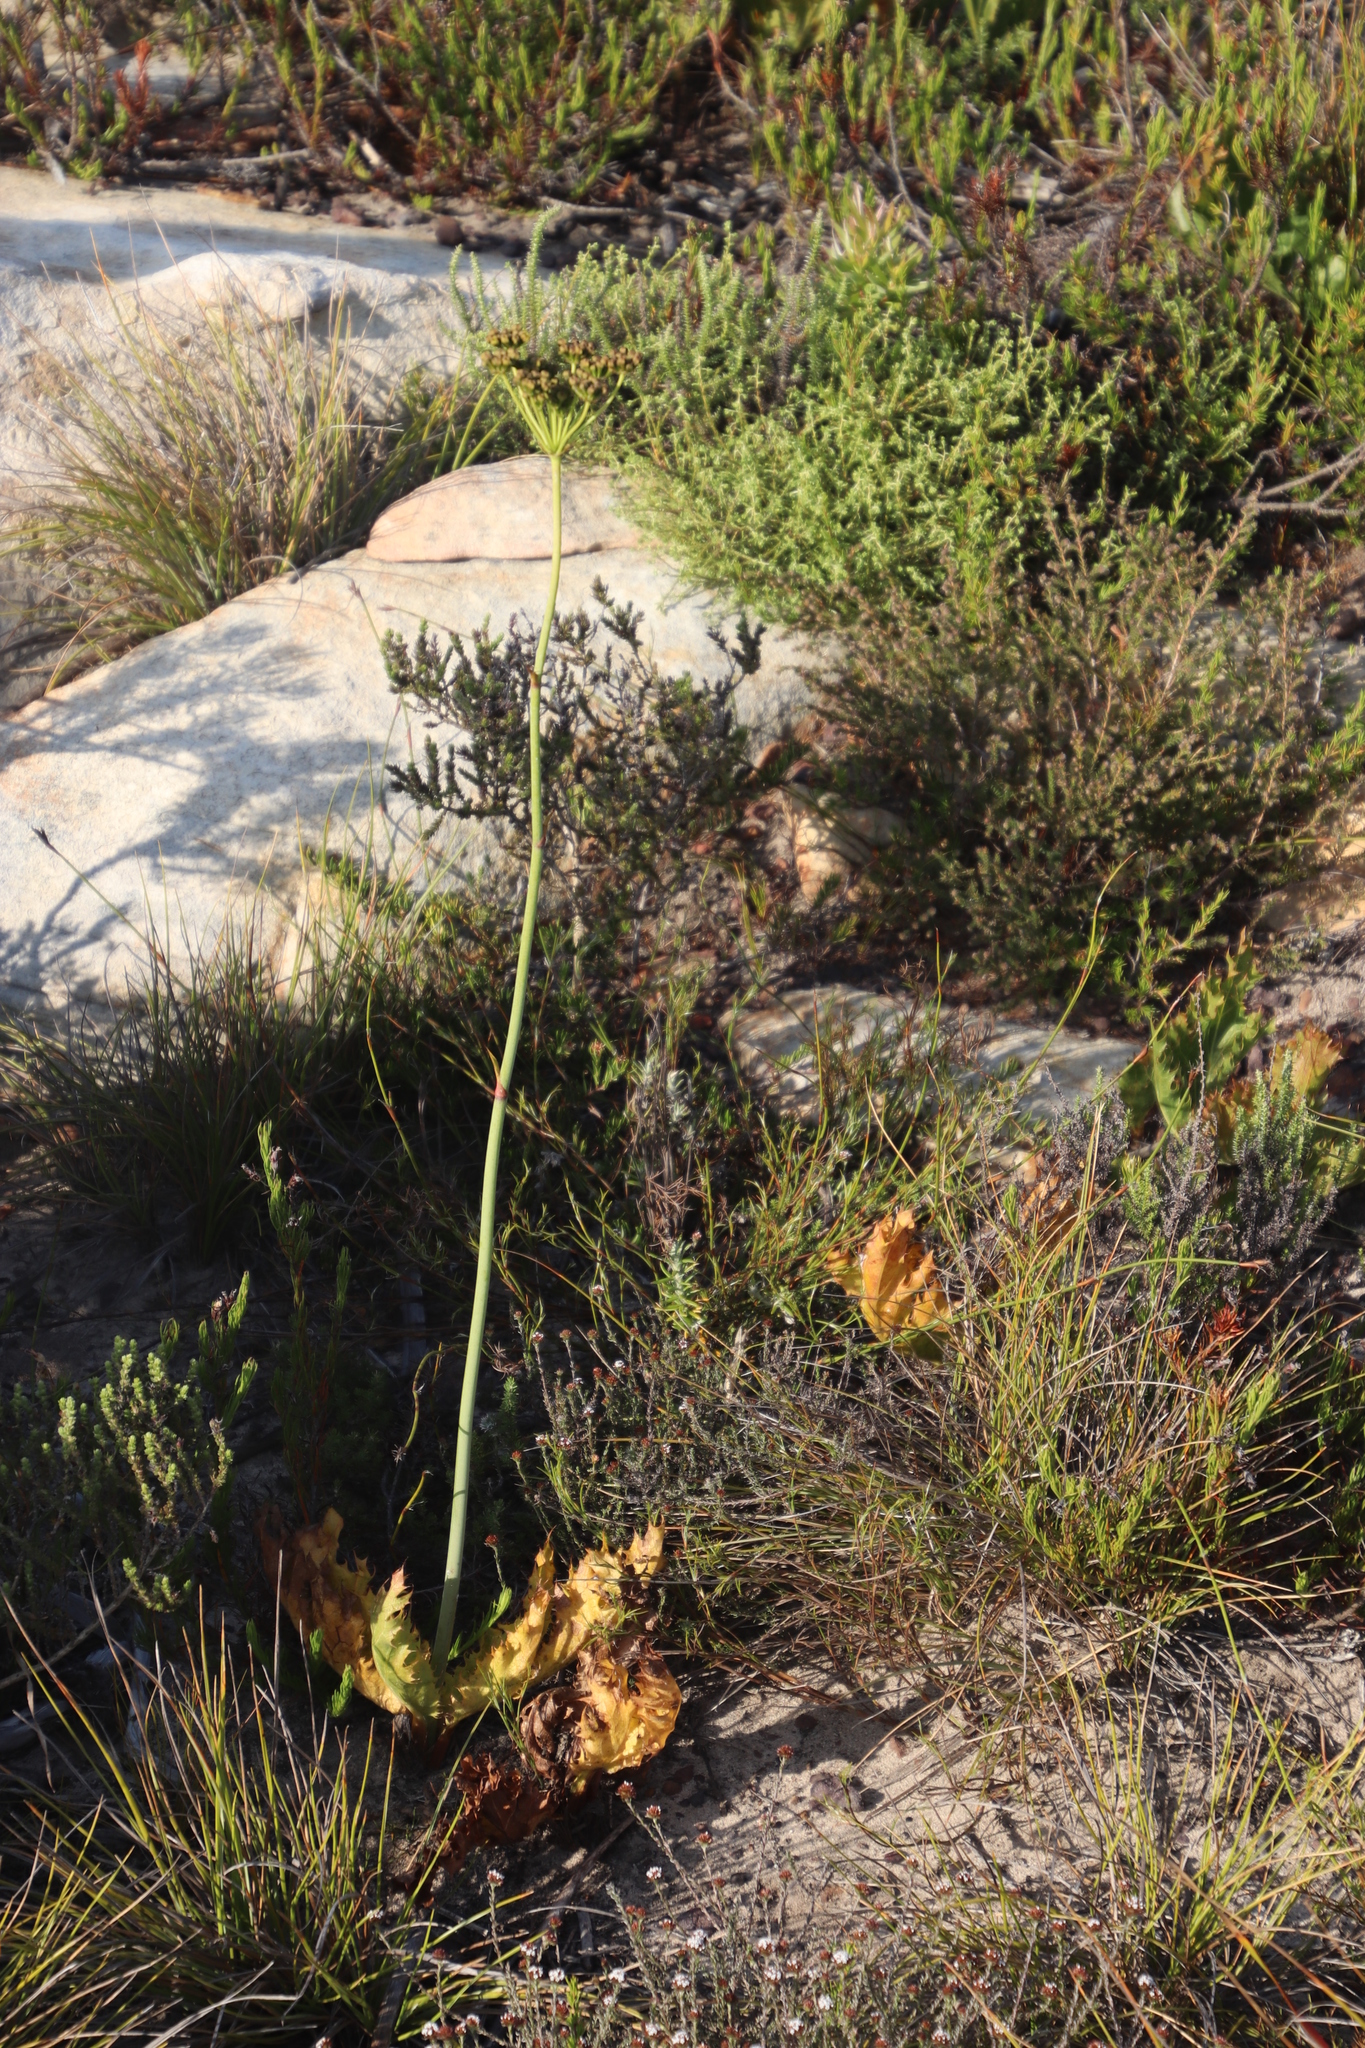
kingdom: Plantae
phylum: Tracheophyta
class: Magnoliopsida
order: Apiales
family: Apiaceae
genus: Lichtensteinia
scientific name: Lichtensteinia lacera
